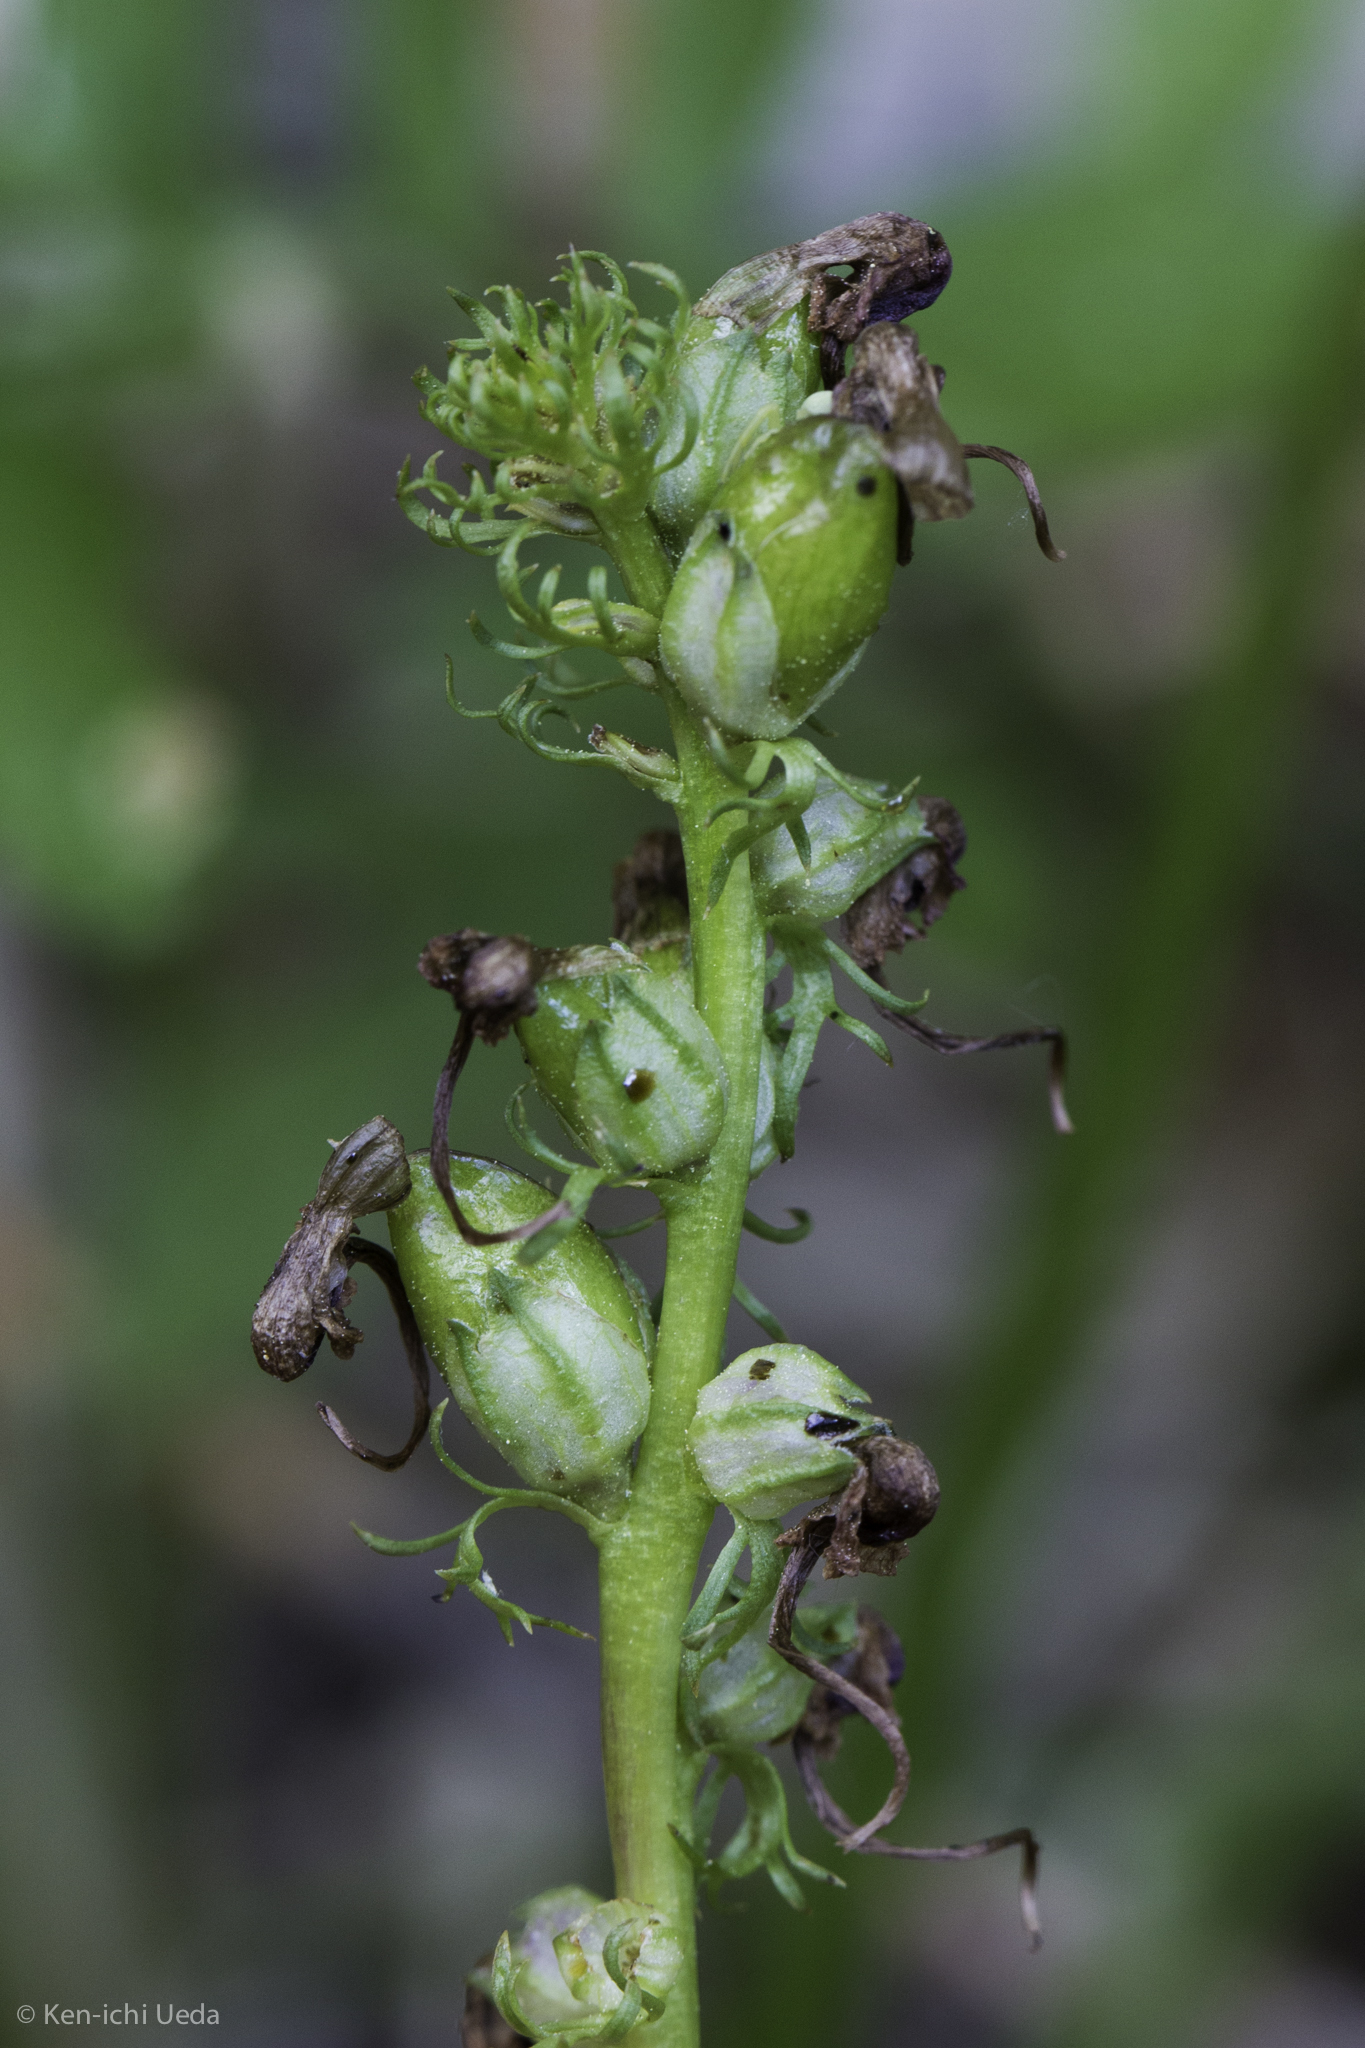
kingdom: Plantae
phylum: Tracheophyta
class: Magnoliopsida
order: Lamiales
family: Orobanchaceae
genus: Pedicularis
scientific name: Pedicularis groenlandica
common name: Elephant's-head
